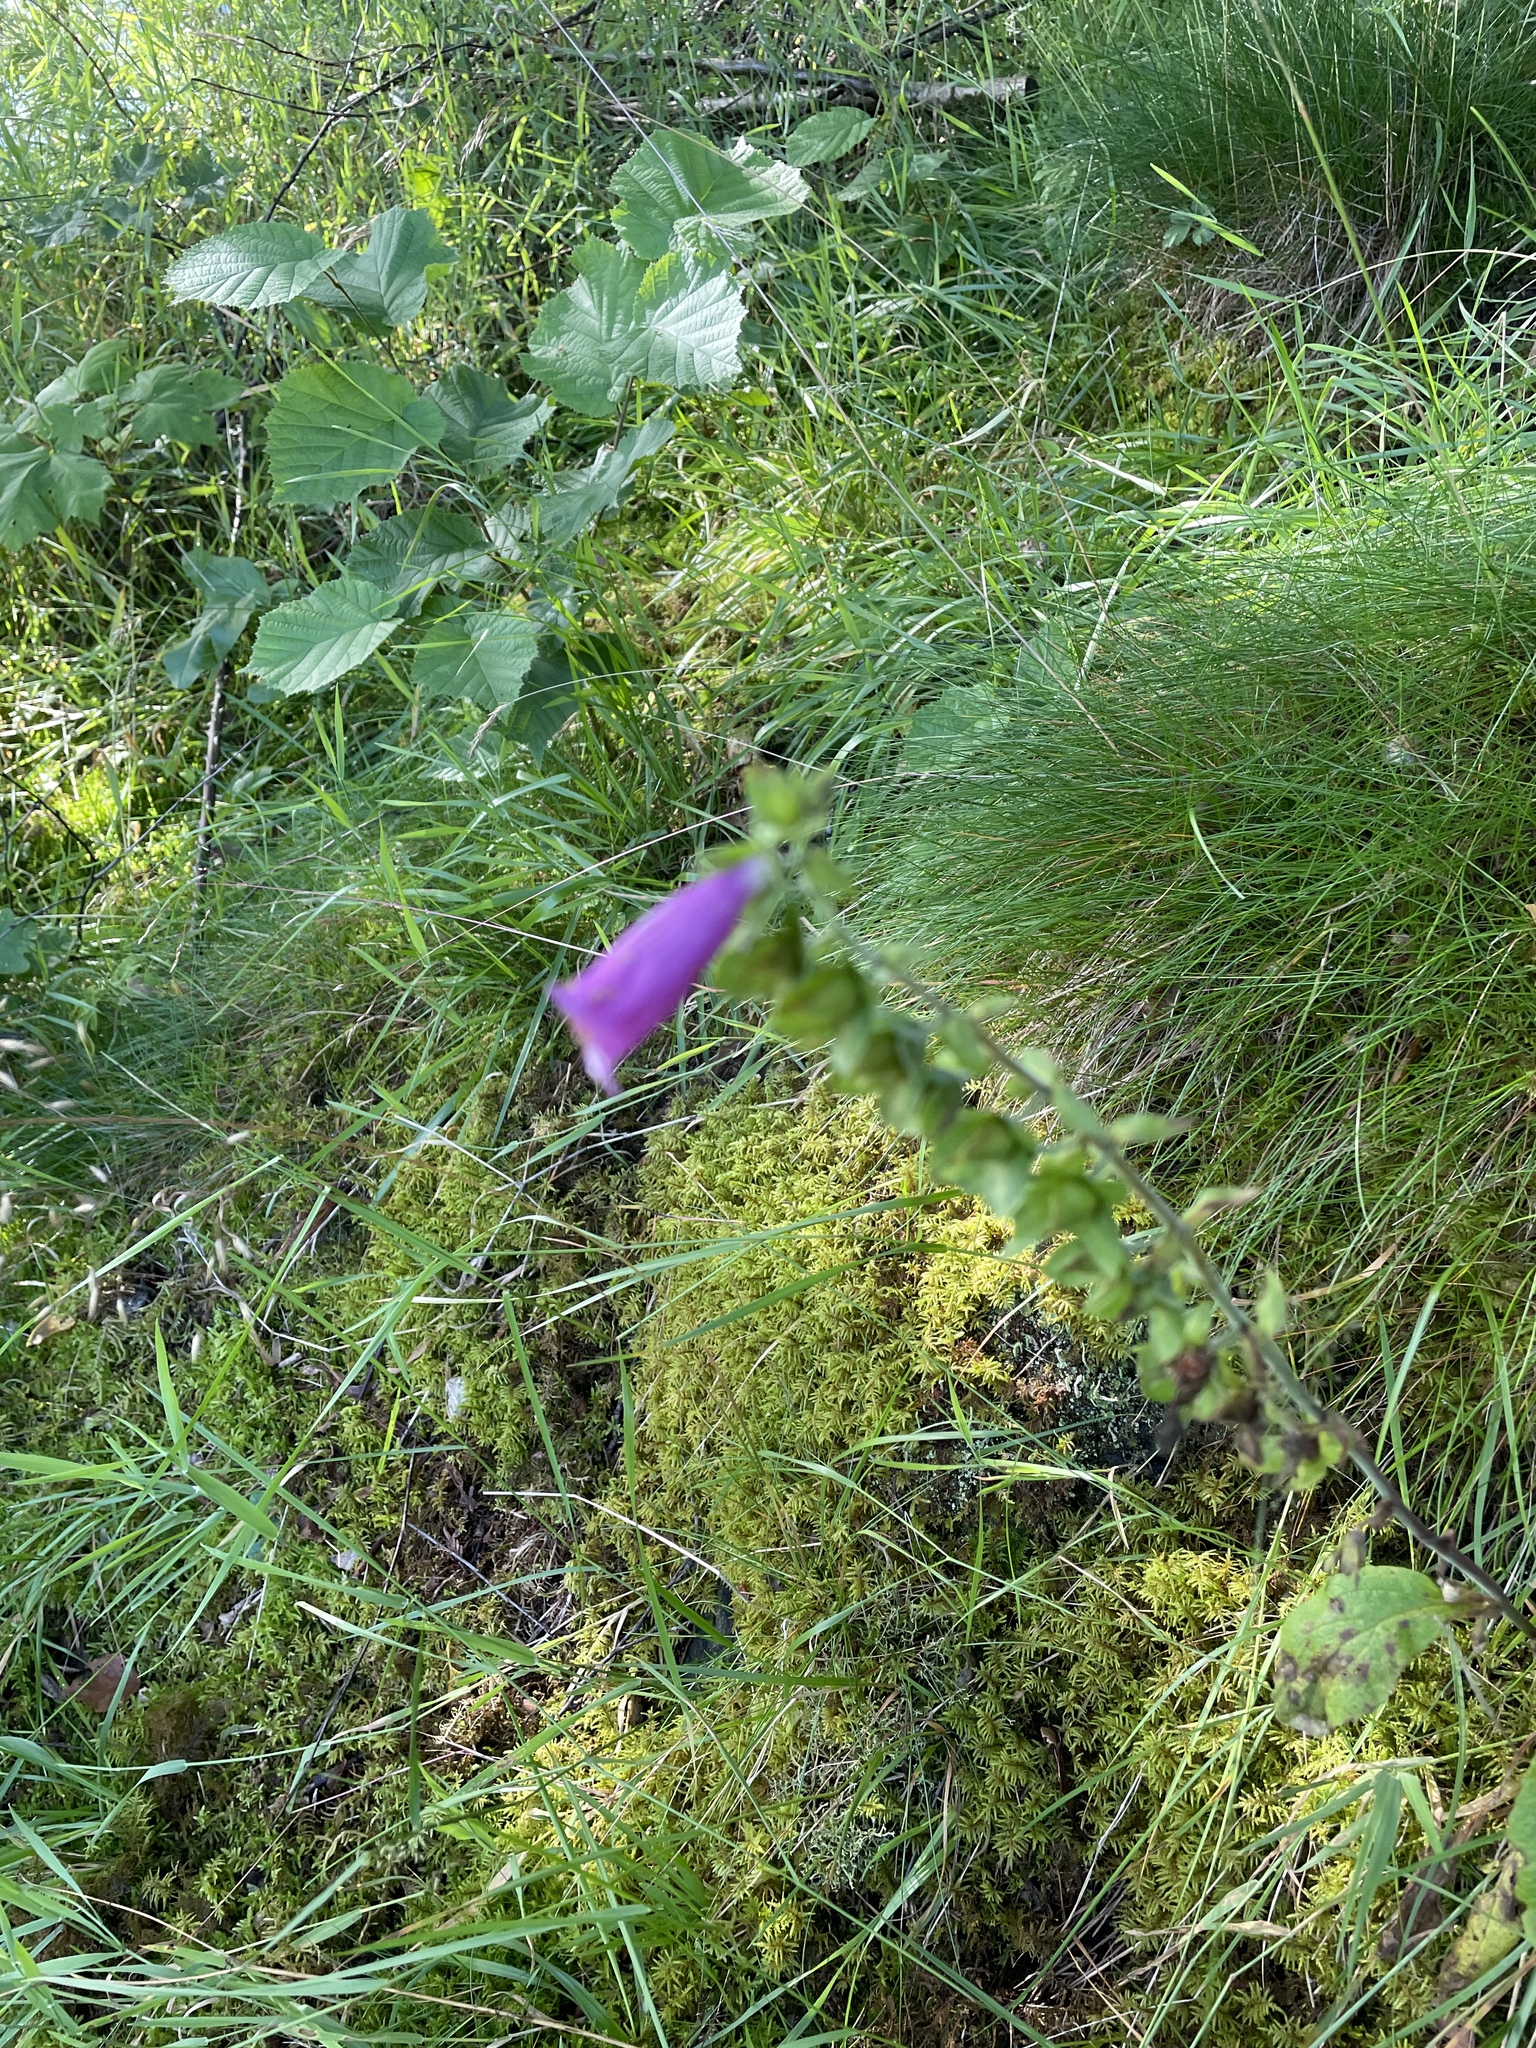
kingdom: Plantae
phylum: Tracheophyta
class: Magnoliopsida
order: Lamiales
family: Plantaginaceae
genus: Digitalis
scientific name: Digitalis purpurea
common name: Foxglove
